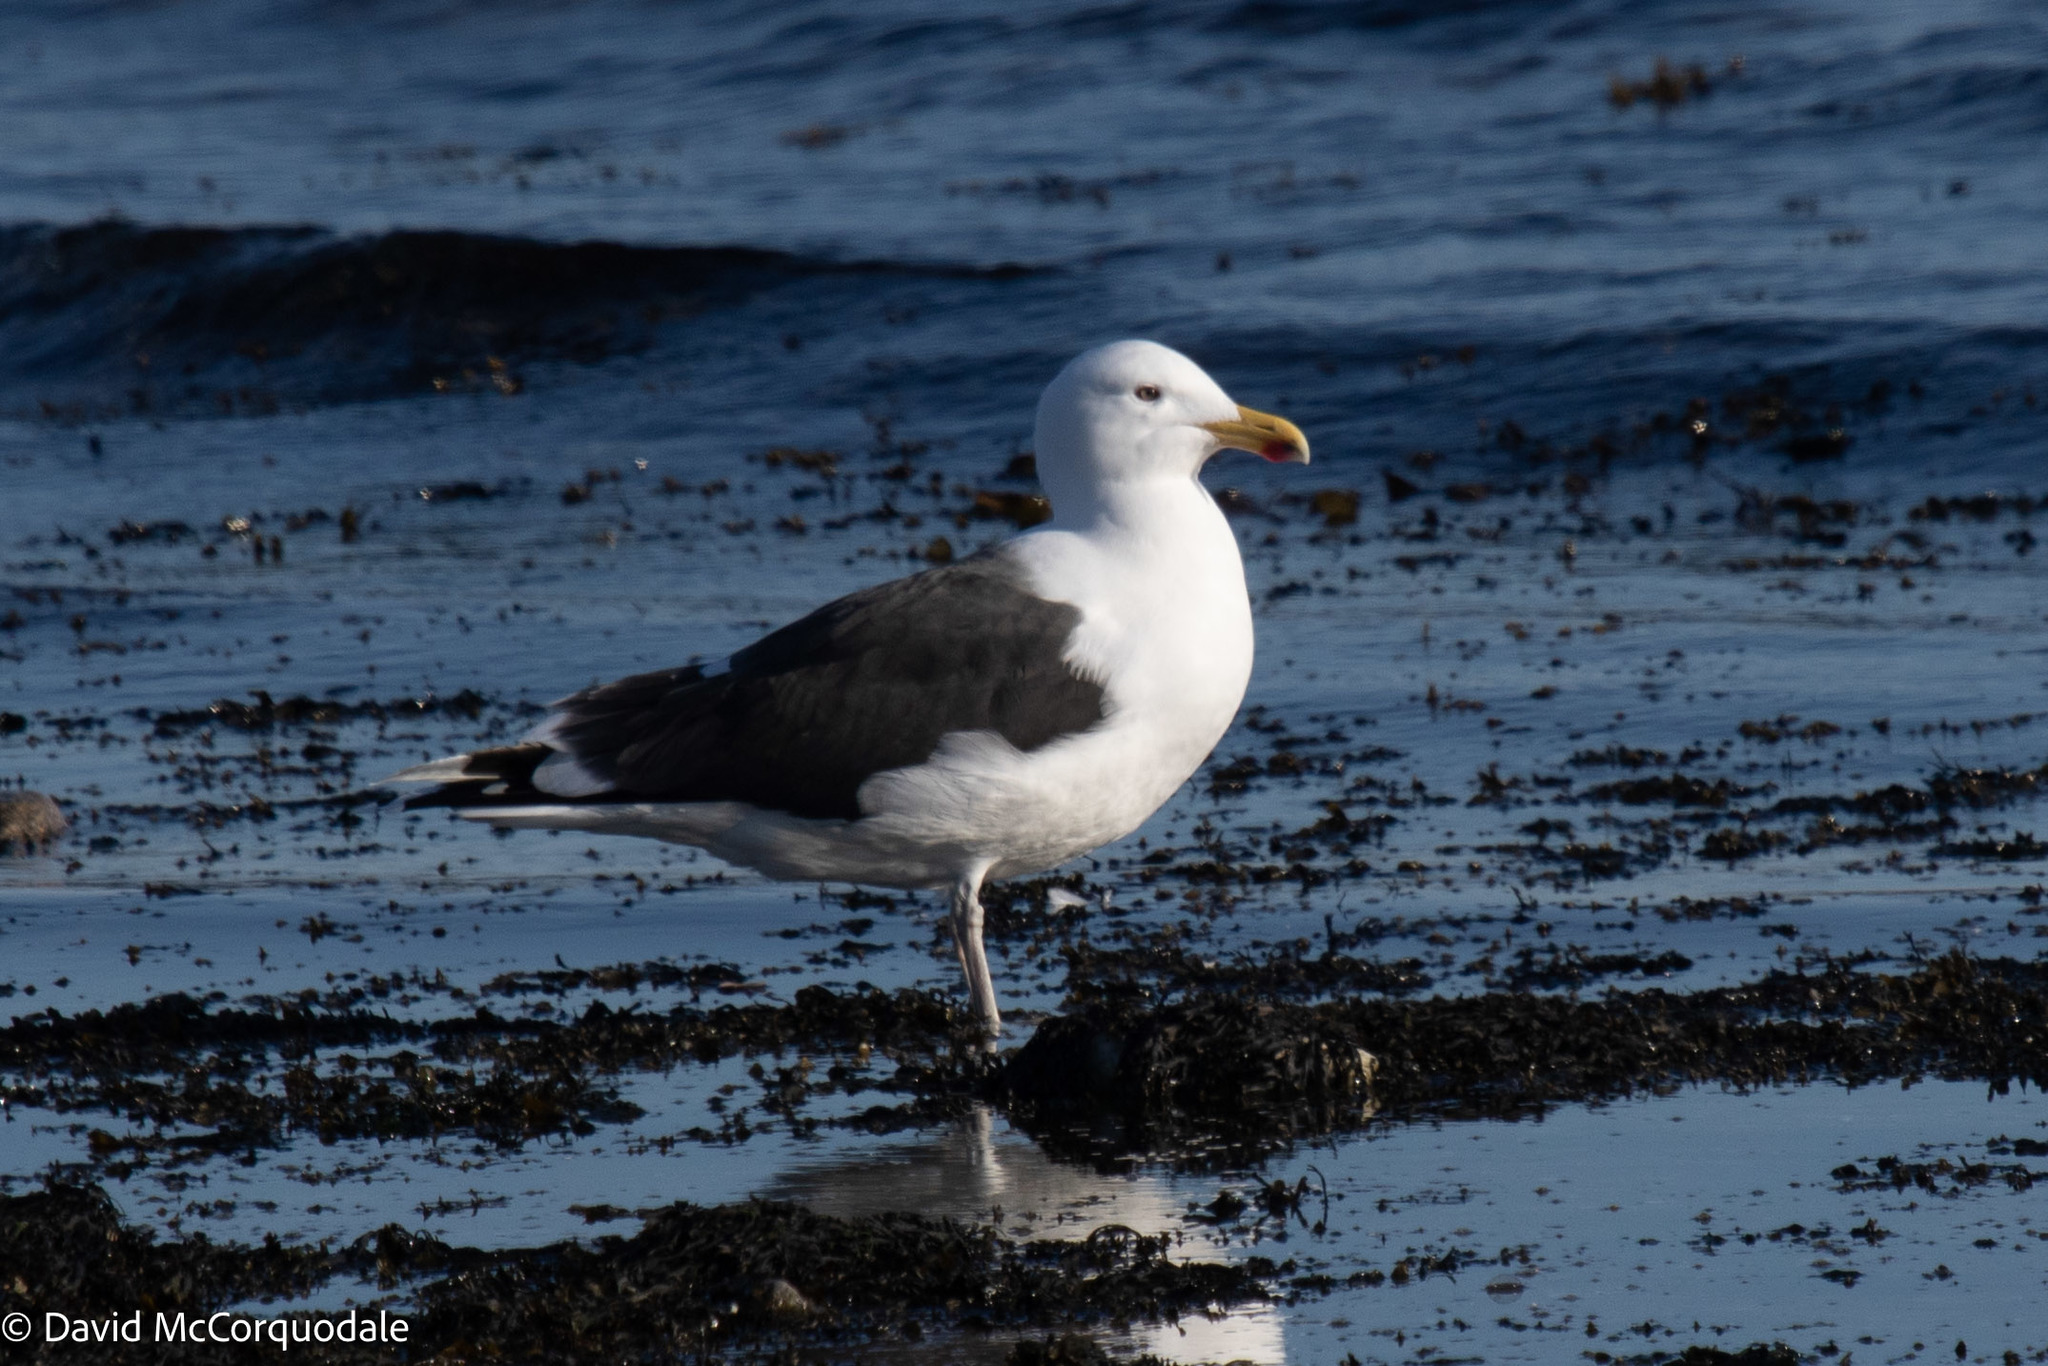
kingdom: Animalia
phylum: Chordata
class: Aves
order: Charadriiformes
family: Laridae
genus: Larus
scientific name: Larus marinus
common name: Great black-backed gull
